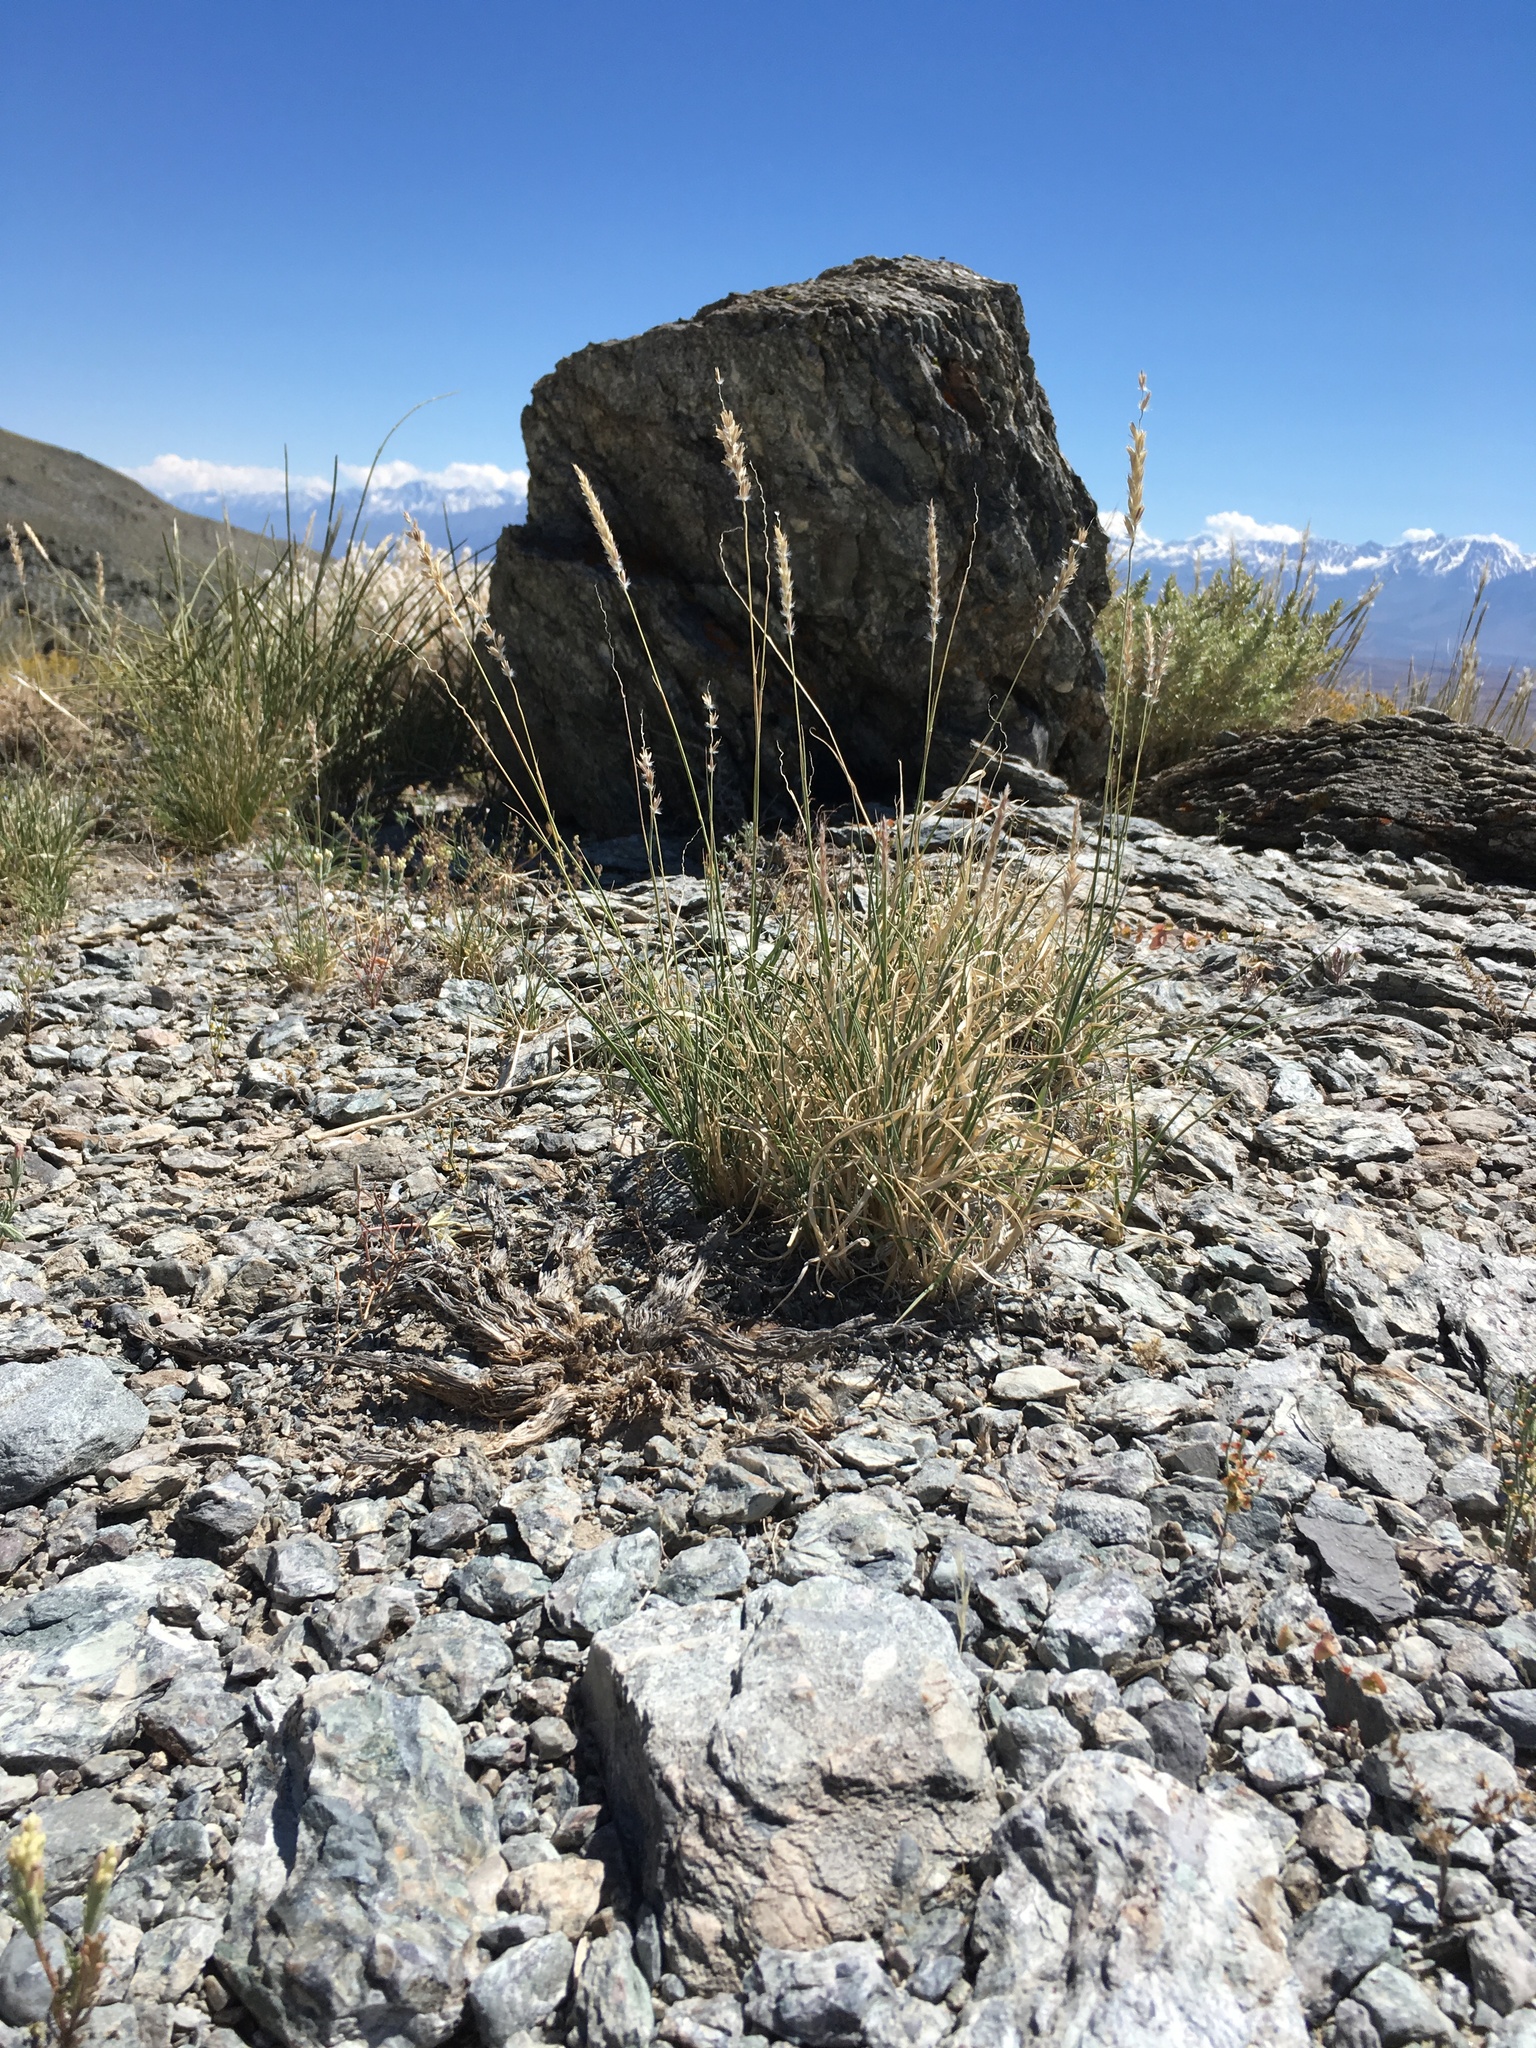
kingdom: Plantae
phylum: Tracheophyta
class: Liliopsida
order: Poales
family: Poaceae
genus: Hilaria
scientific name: Hilaria jamesii
